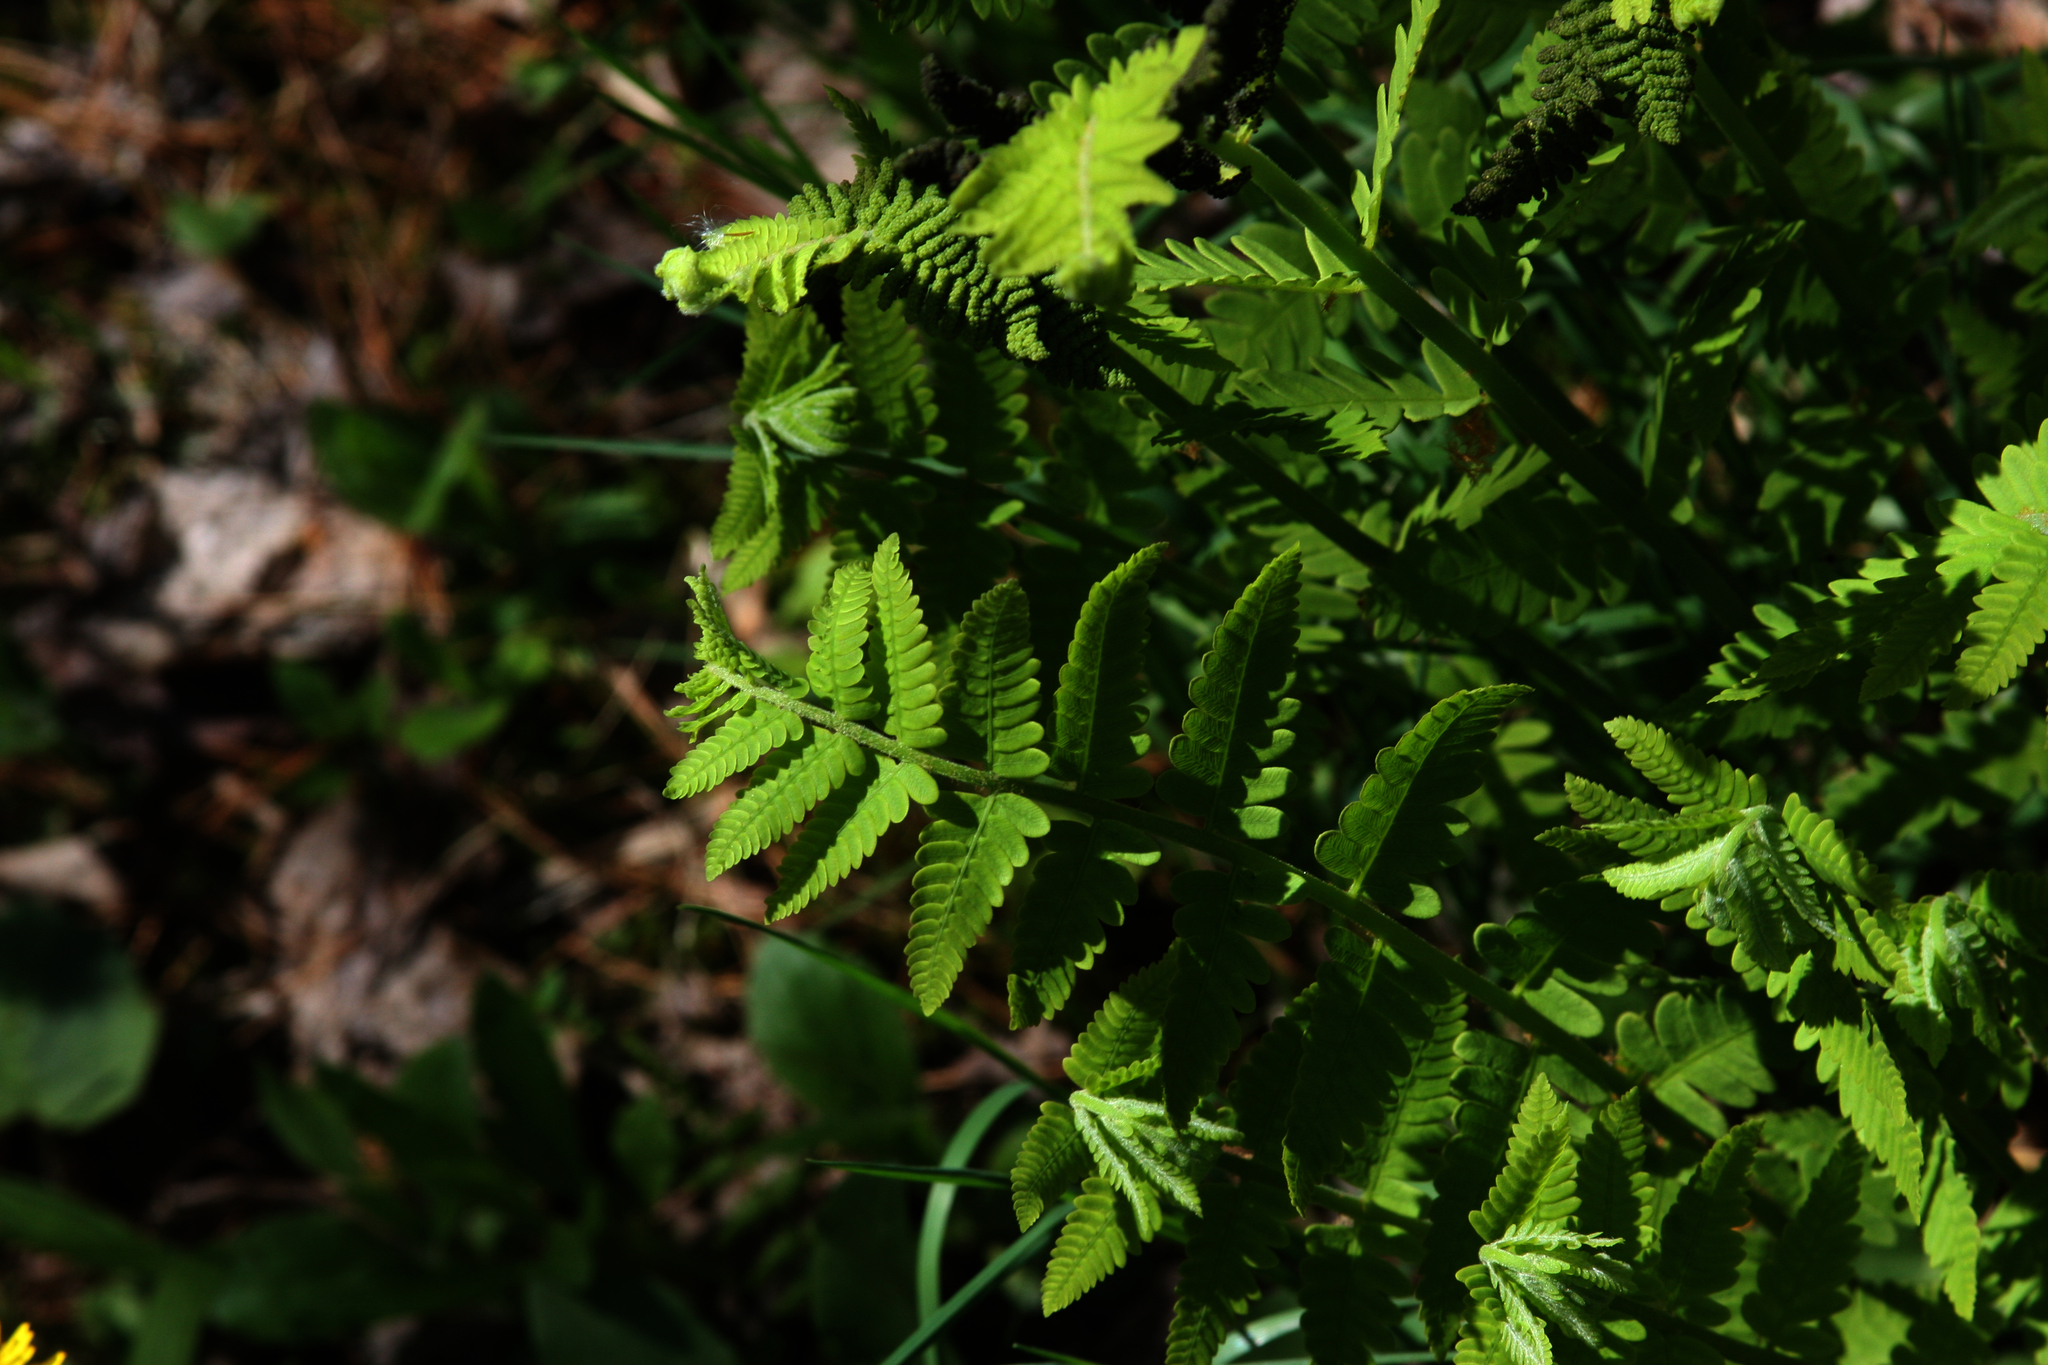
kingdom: Plantae
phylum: Tracheophyta
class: Polypodiopsida
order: Osmundales
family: Osmundaceae
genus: Claytosmunda
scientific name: Claytosmunda claytoniana
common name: Clayton's fern
